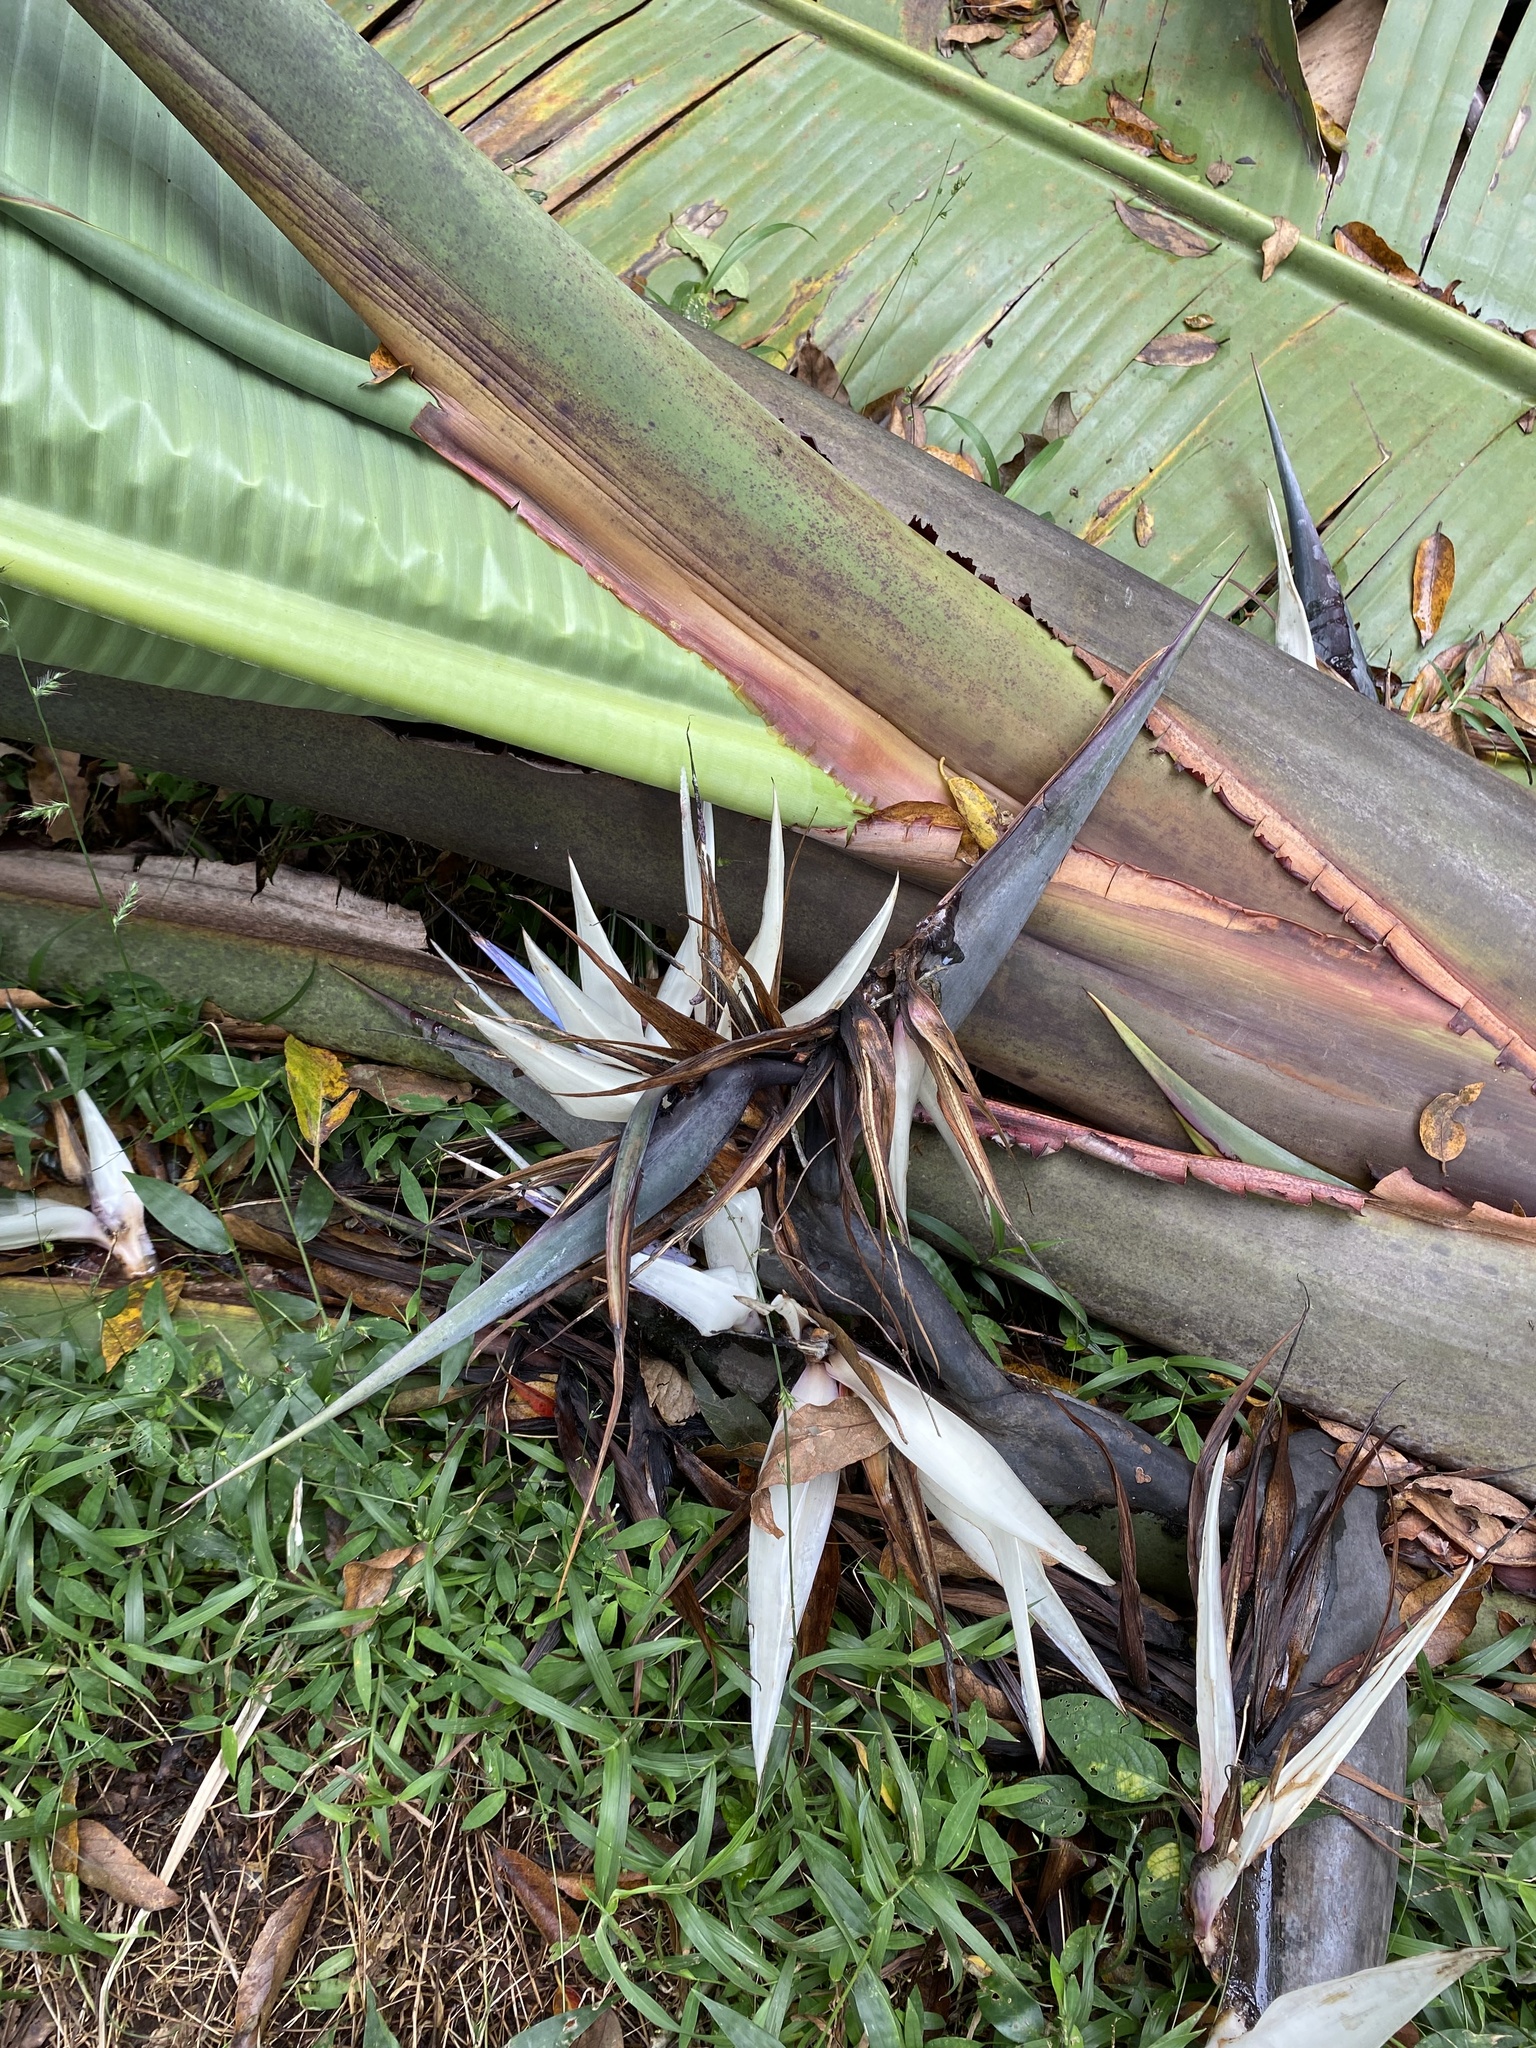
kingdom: Plantae
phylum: Tracheophyta
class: Liliopsida
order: Zingiberales
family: Strelitziaceae
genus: Strelitzia
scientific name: Strelitzia nicolai
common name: Bird-of-paradise tree
